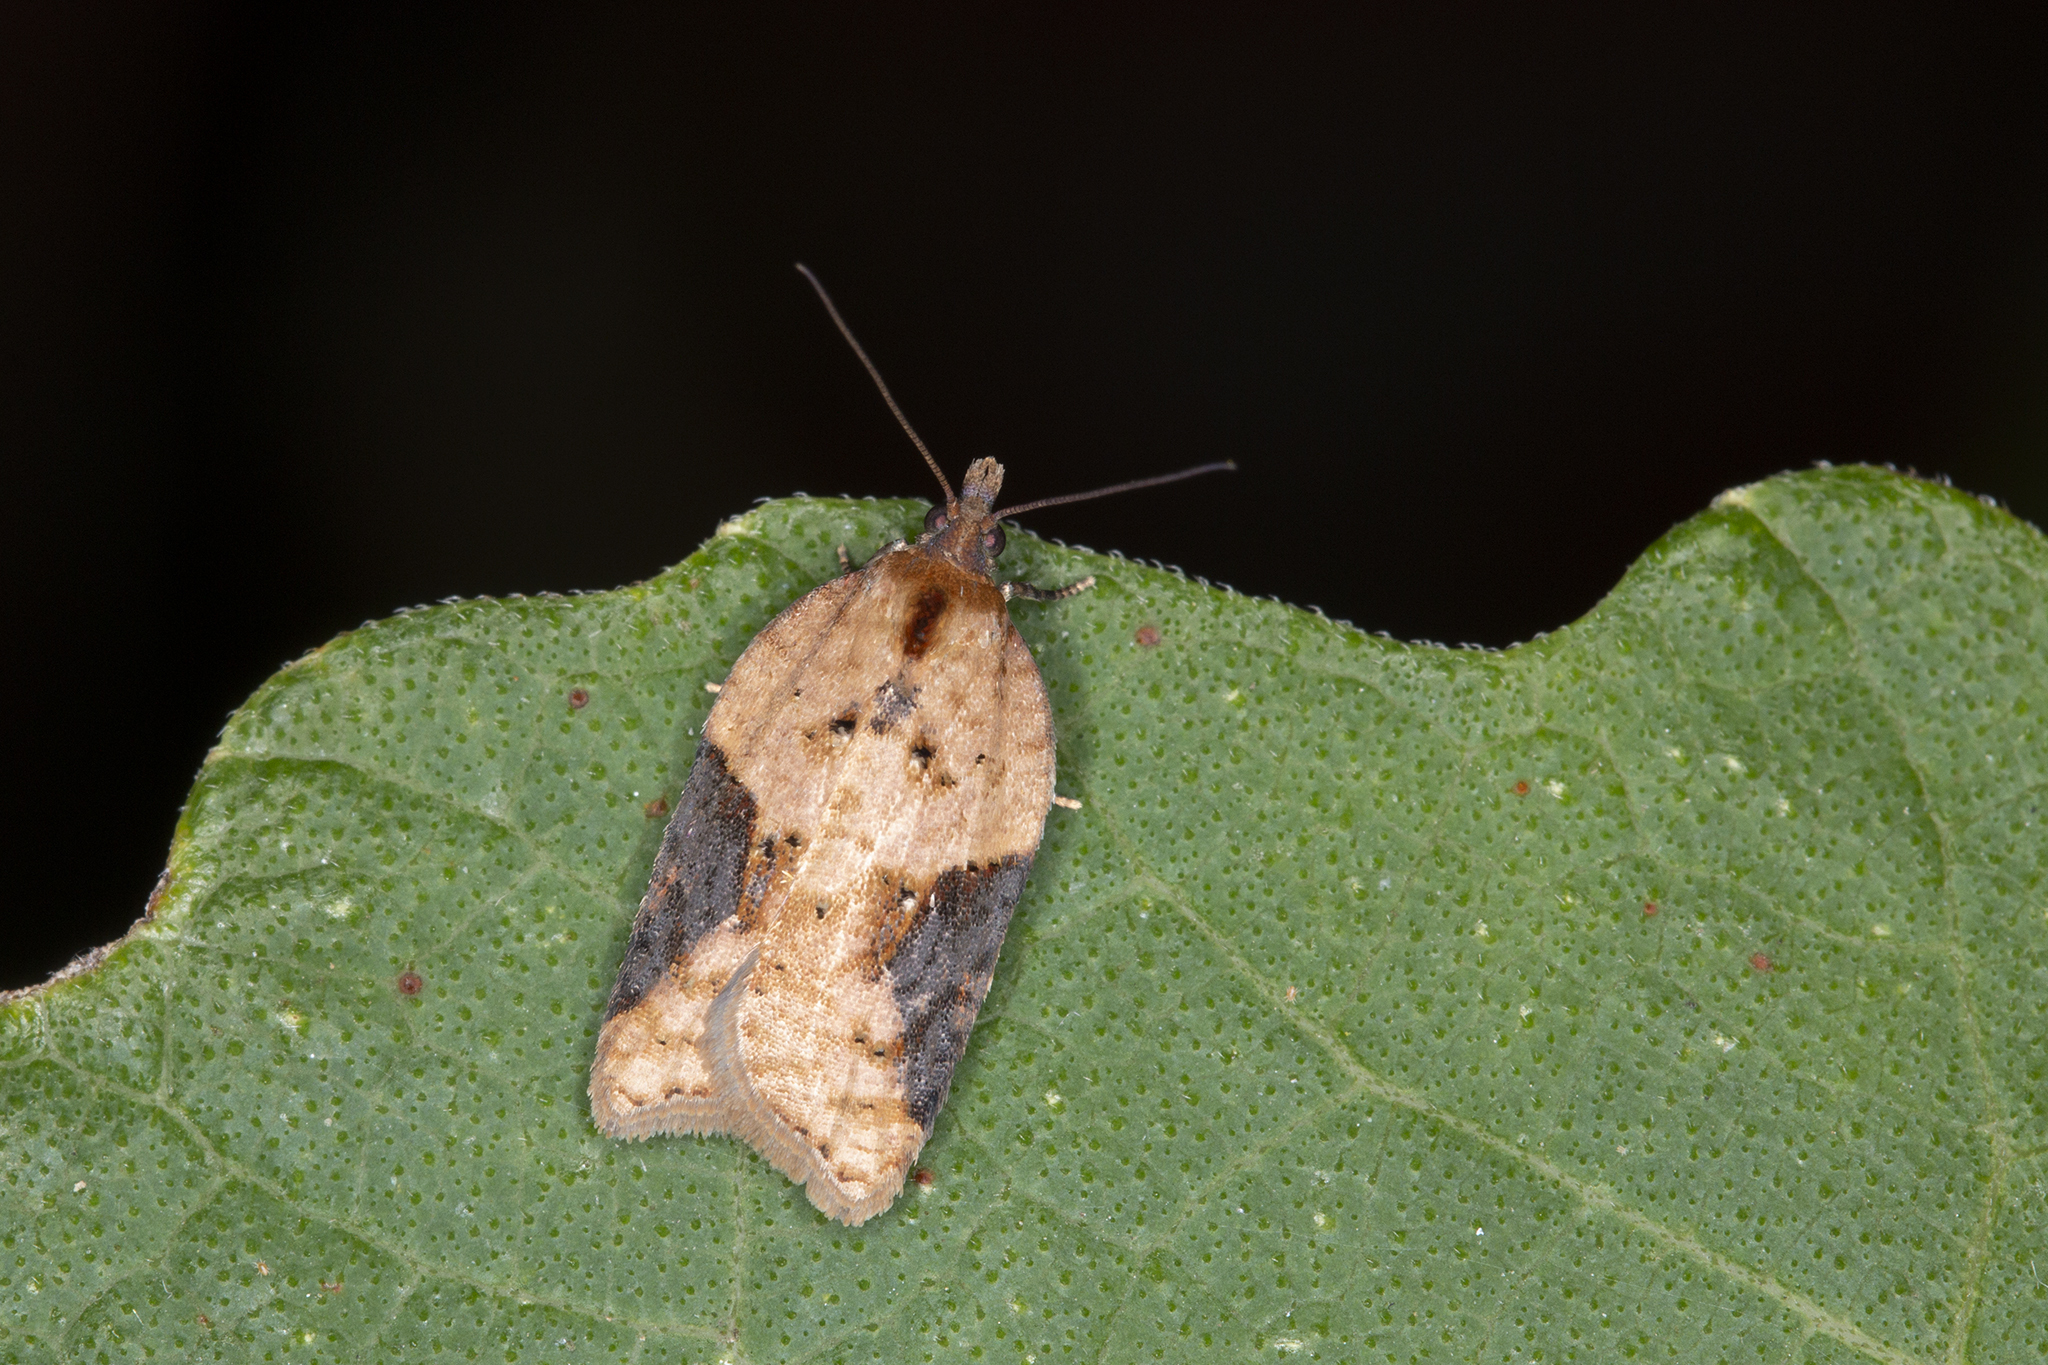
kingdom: Animalia
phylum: Arthropoda
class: Insecta
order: Lepidoptera
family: Tortricidae
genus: Acleris
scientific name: Acleris laterana
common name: Dark-triangle button
